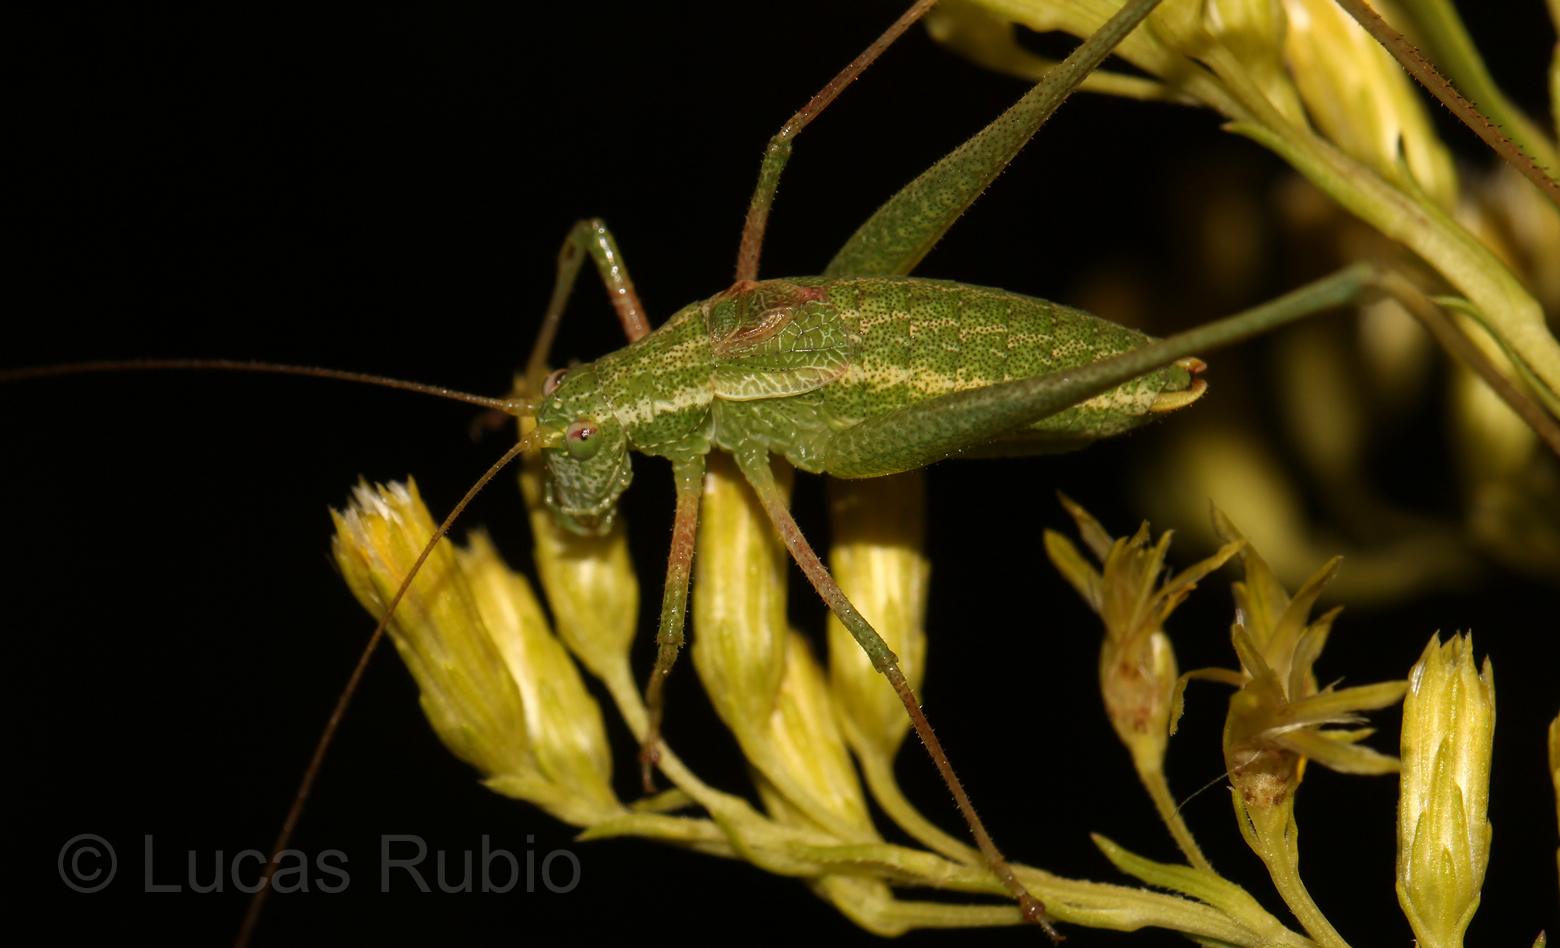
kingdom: Animalia
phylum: Arthropoda
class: Insecta
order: Orthoptera
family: Tettigoniidae
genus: Anisophya
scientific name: Anisophya punctinervis
